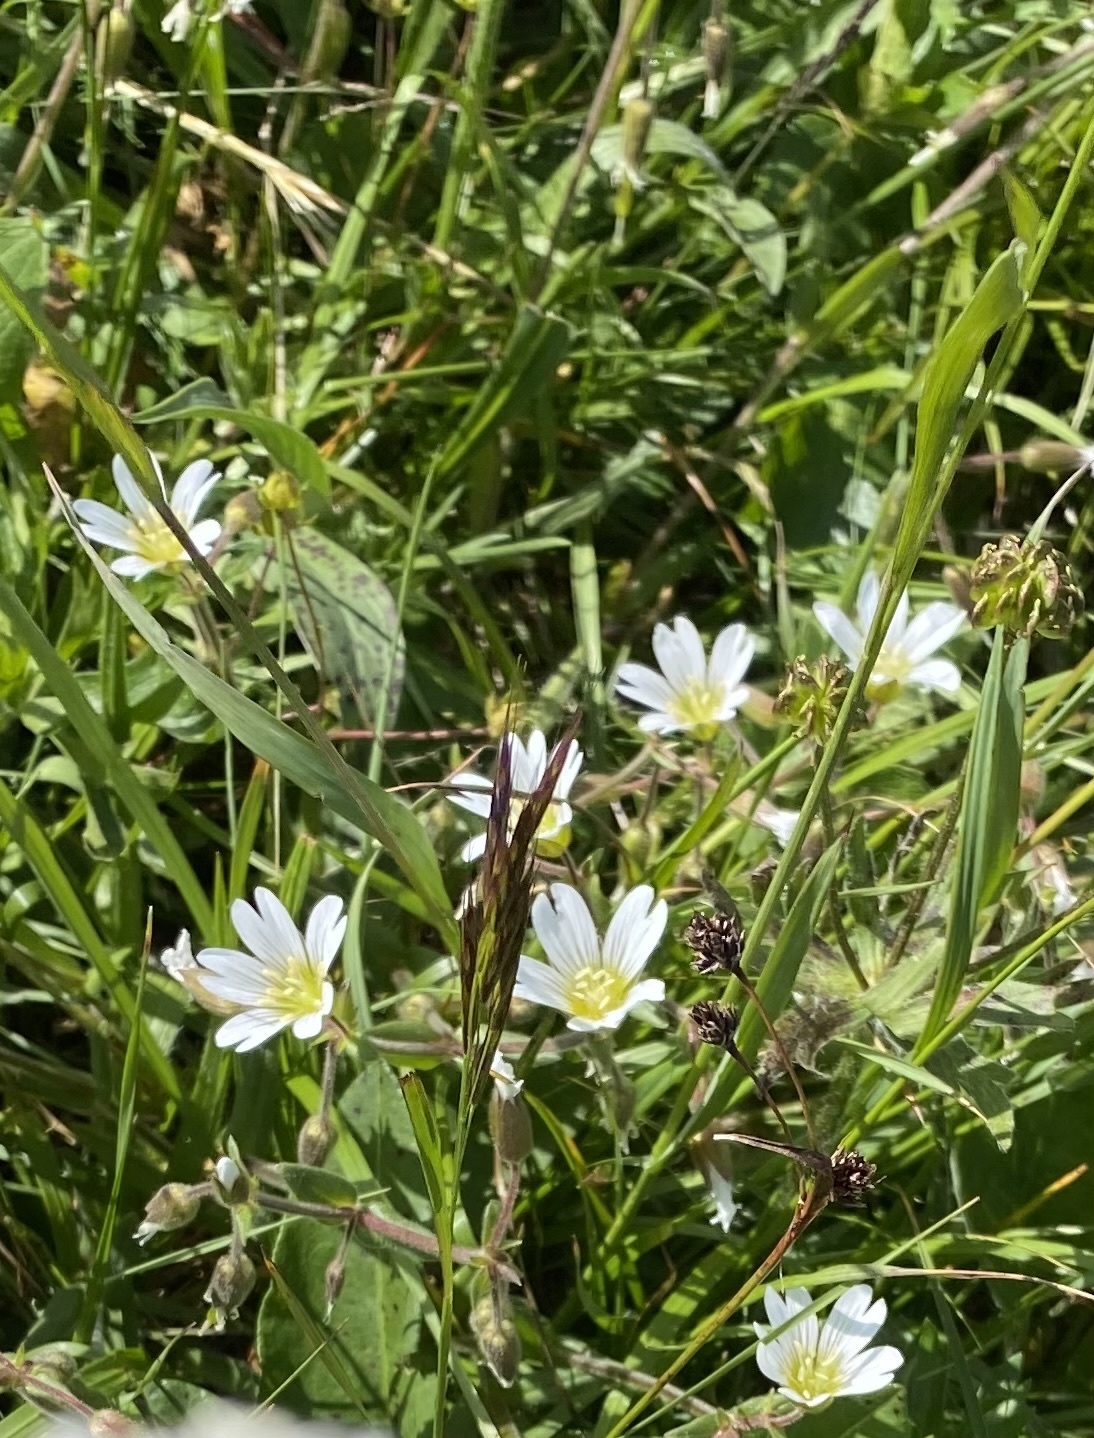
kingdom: Plantae
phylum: Tracheophyta
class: Magnoliopsida
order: Caryophyllales
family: Caryophyllaceae
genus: Dichodon
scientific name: Dichodon cerastoides
